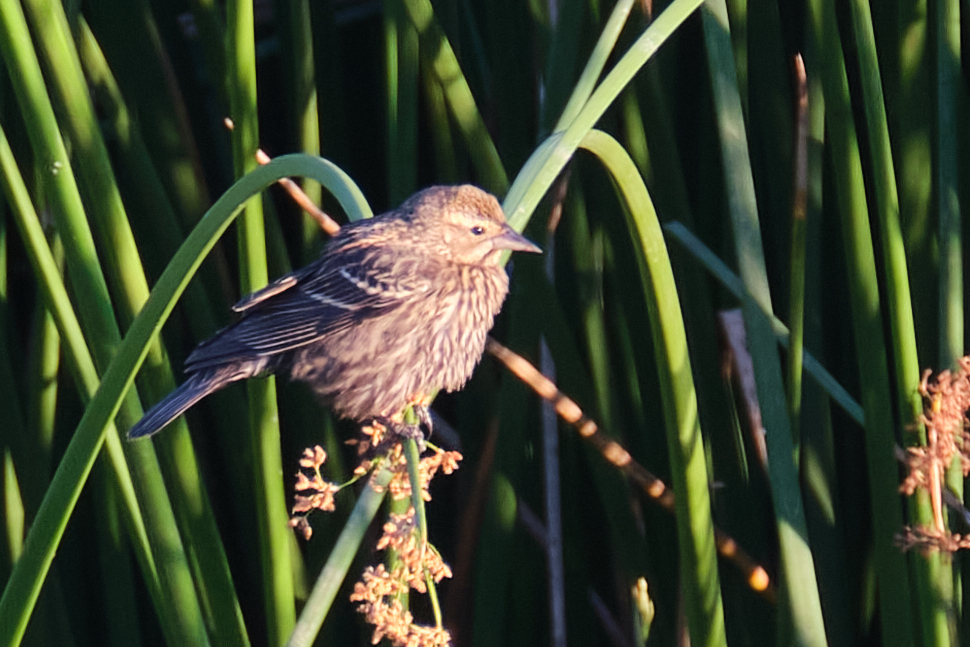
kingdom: Animalia
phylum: Chordata
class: Aves
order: Passeriformes
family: Icteridae
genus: Agelaius
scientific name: Agelaius phoeniceus
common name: Red-winged blackbird
